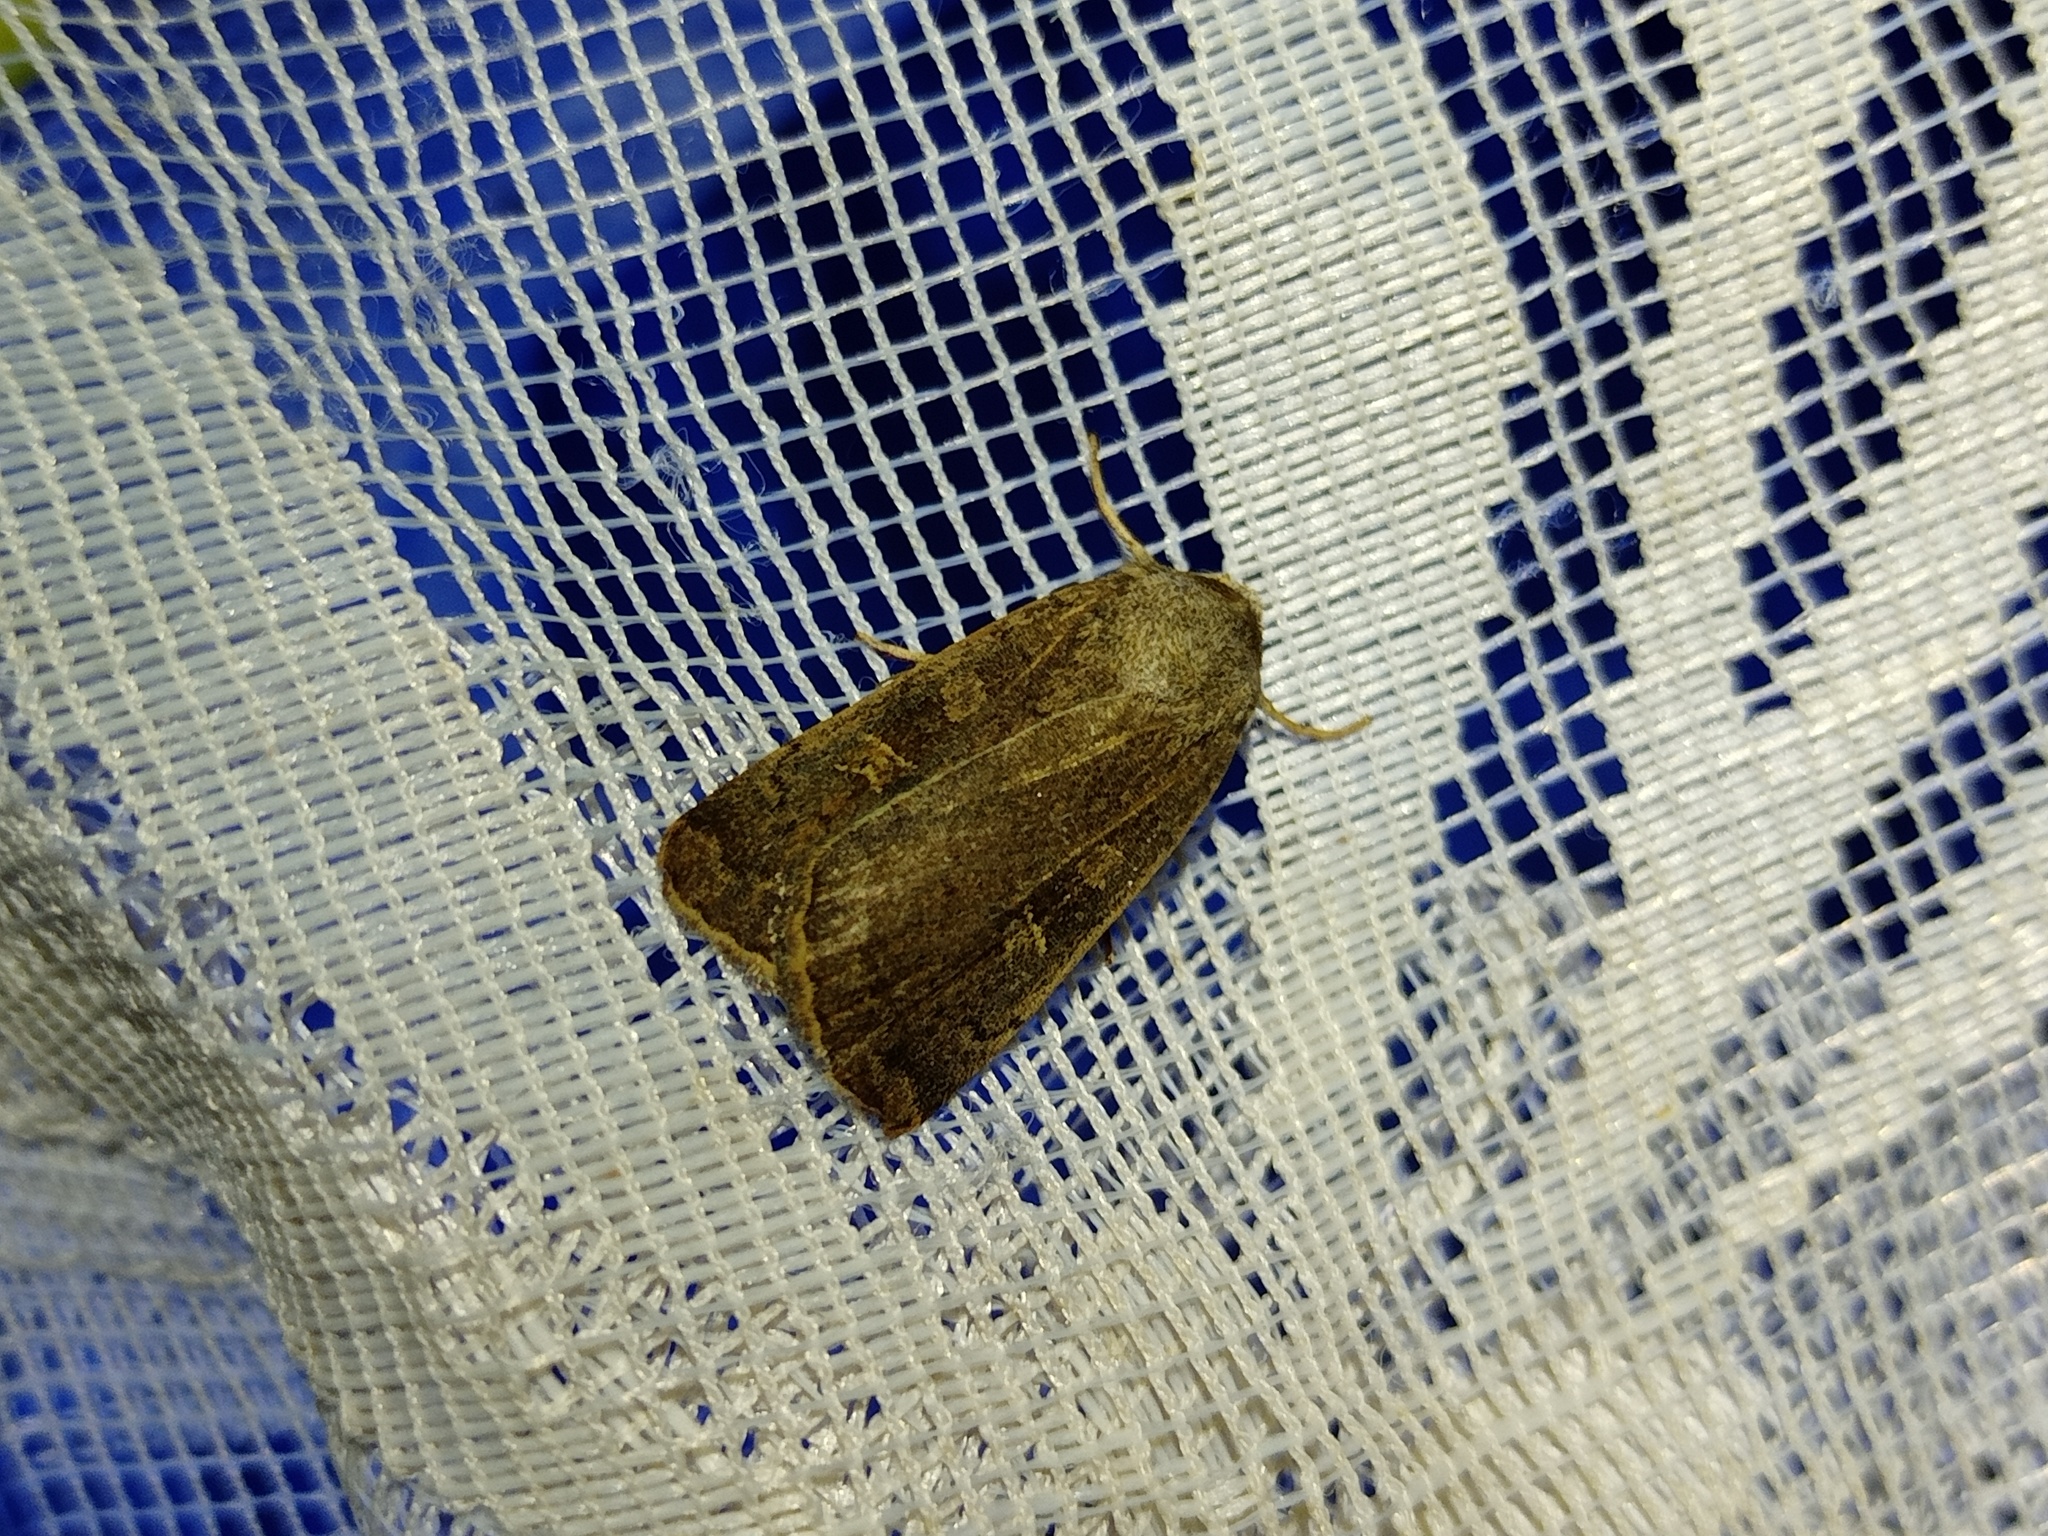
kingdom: Animalia
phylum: Arthropoda
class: Insecta
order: Lepidoptera
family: Noctuidae
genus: Xestia
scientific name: Xestia xanthographa
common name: Square-spot rustic
